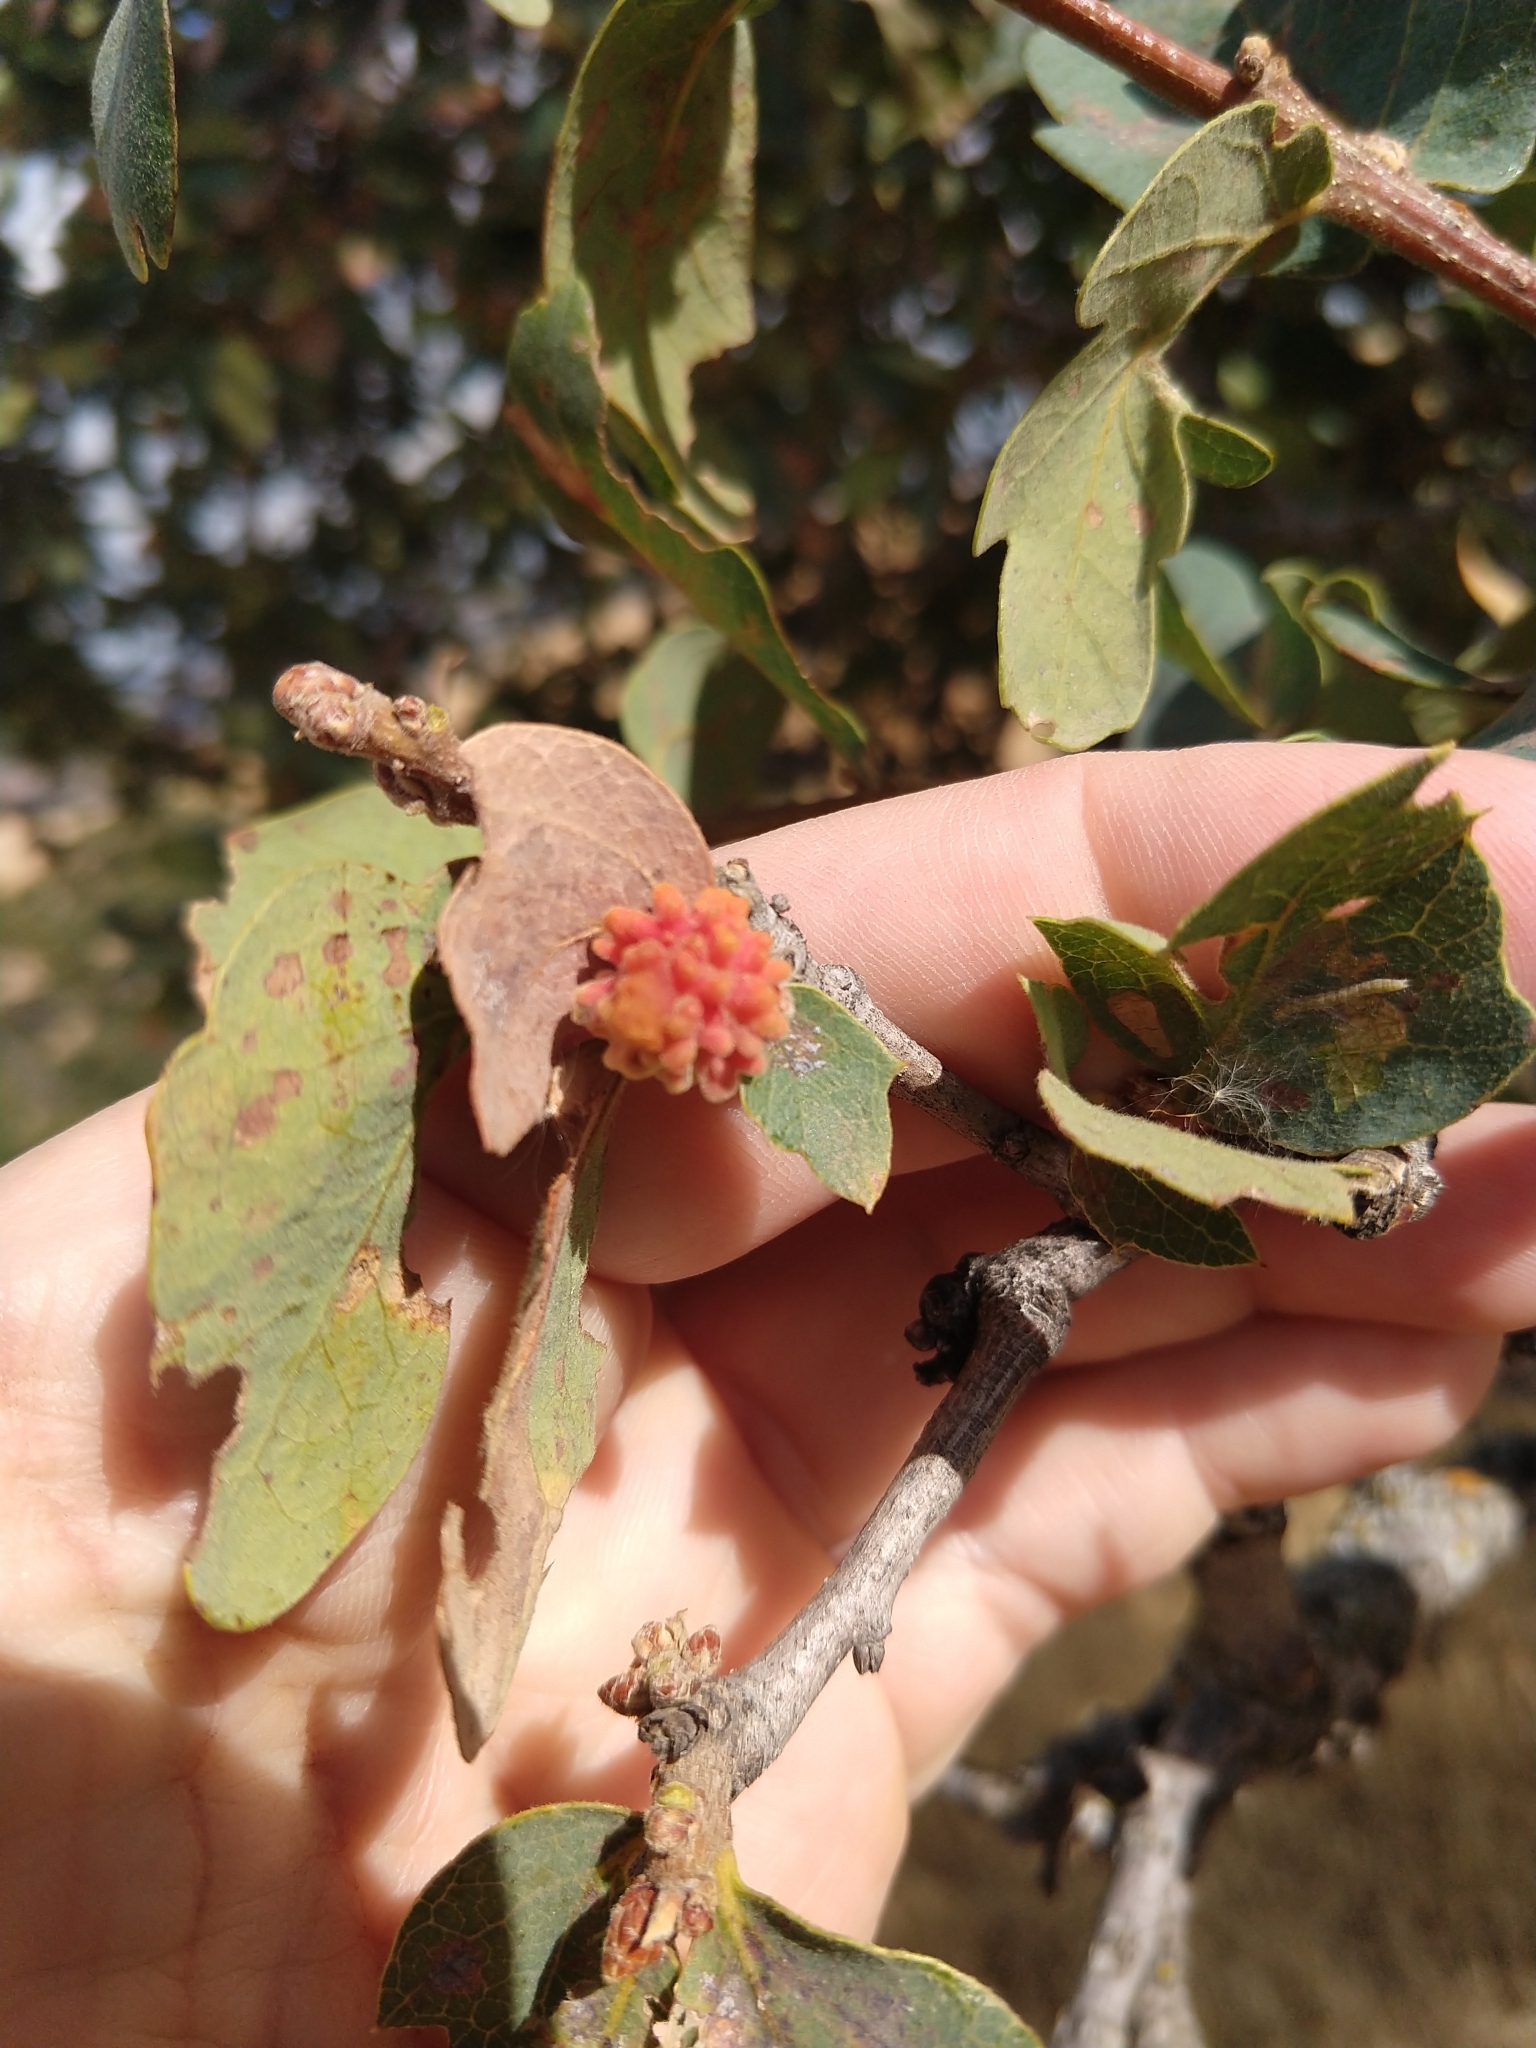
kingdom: Animalia
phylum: Arthropoda
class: Insecta
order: Hymenoptera
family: Cynipidae
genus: Burnettweldia
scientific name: Burnettweldia
